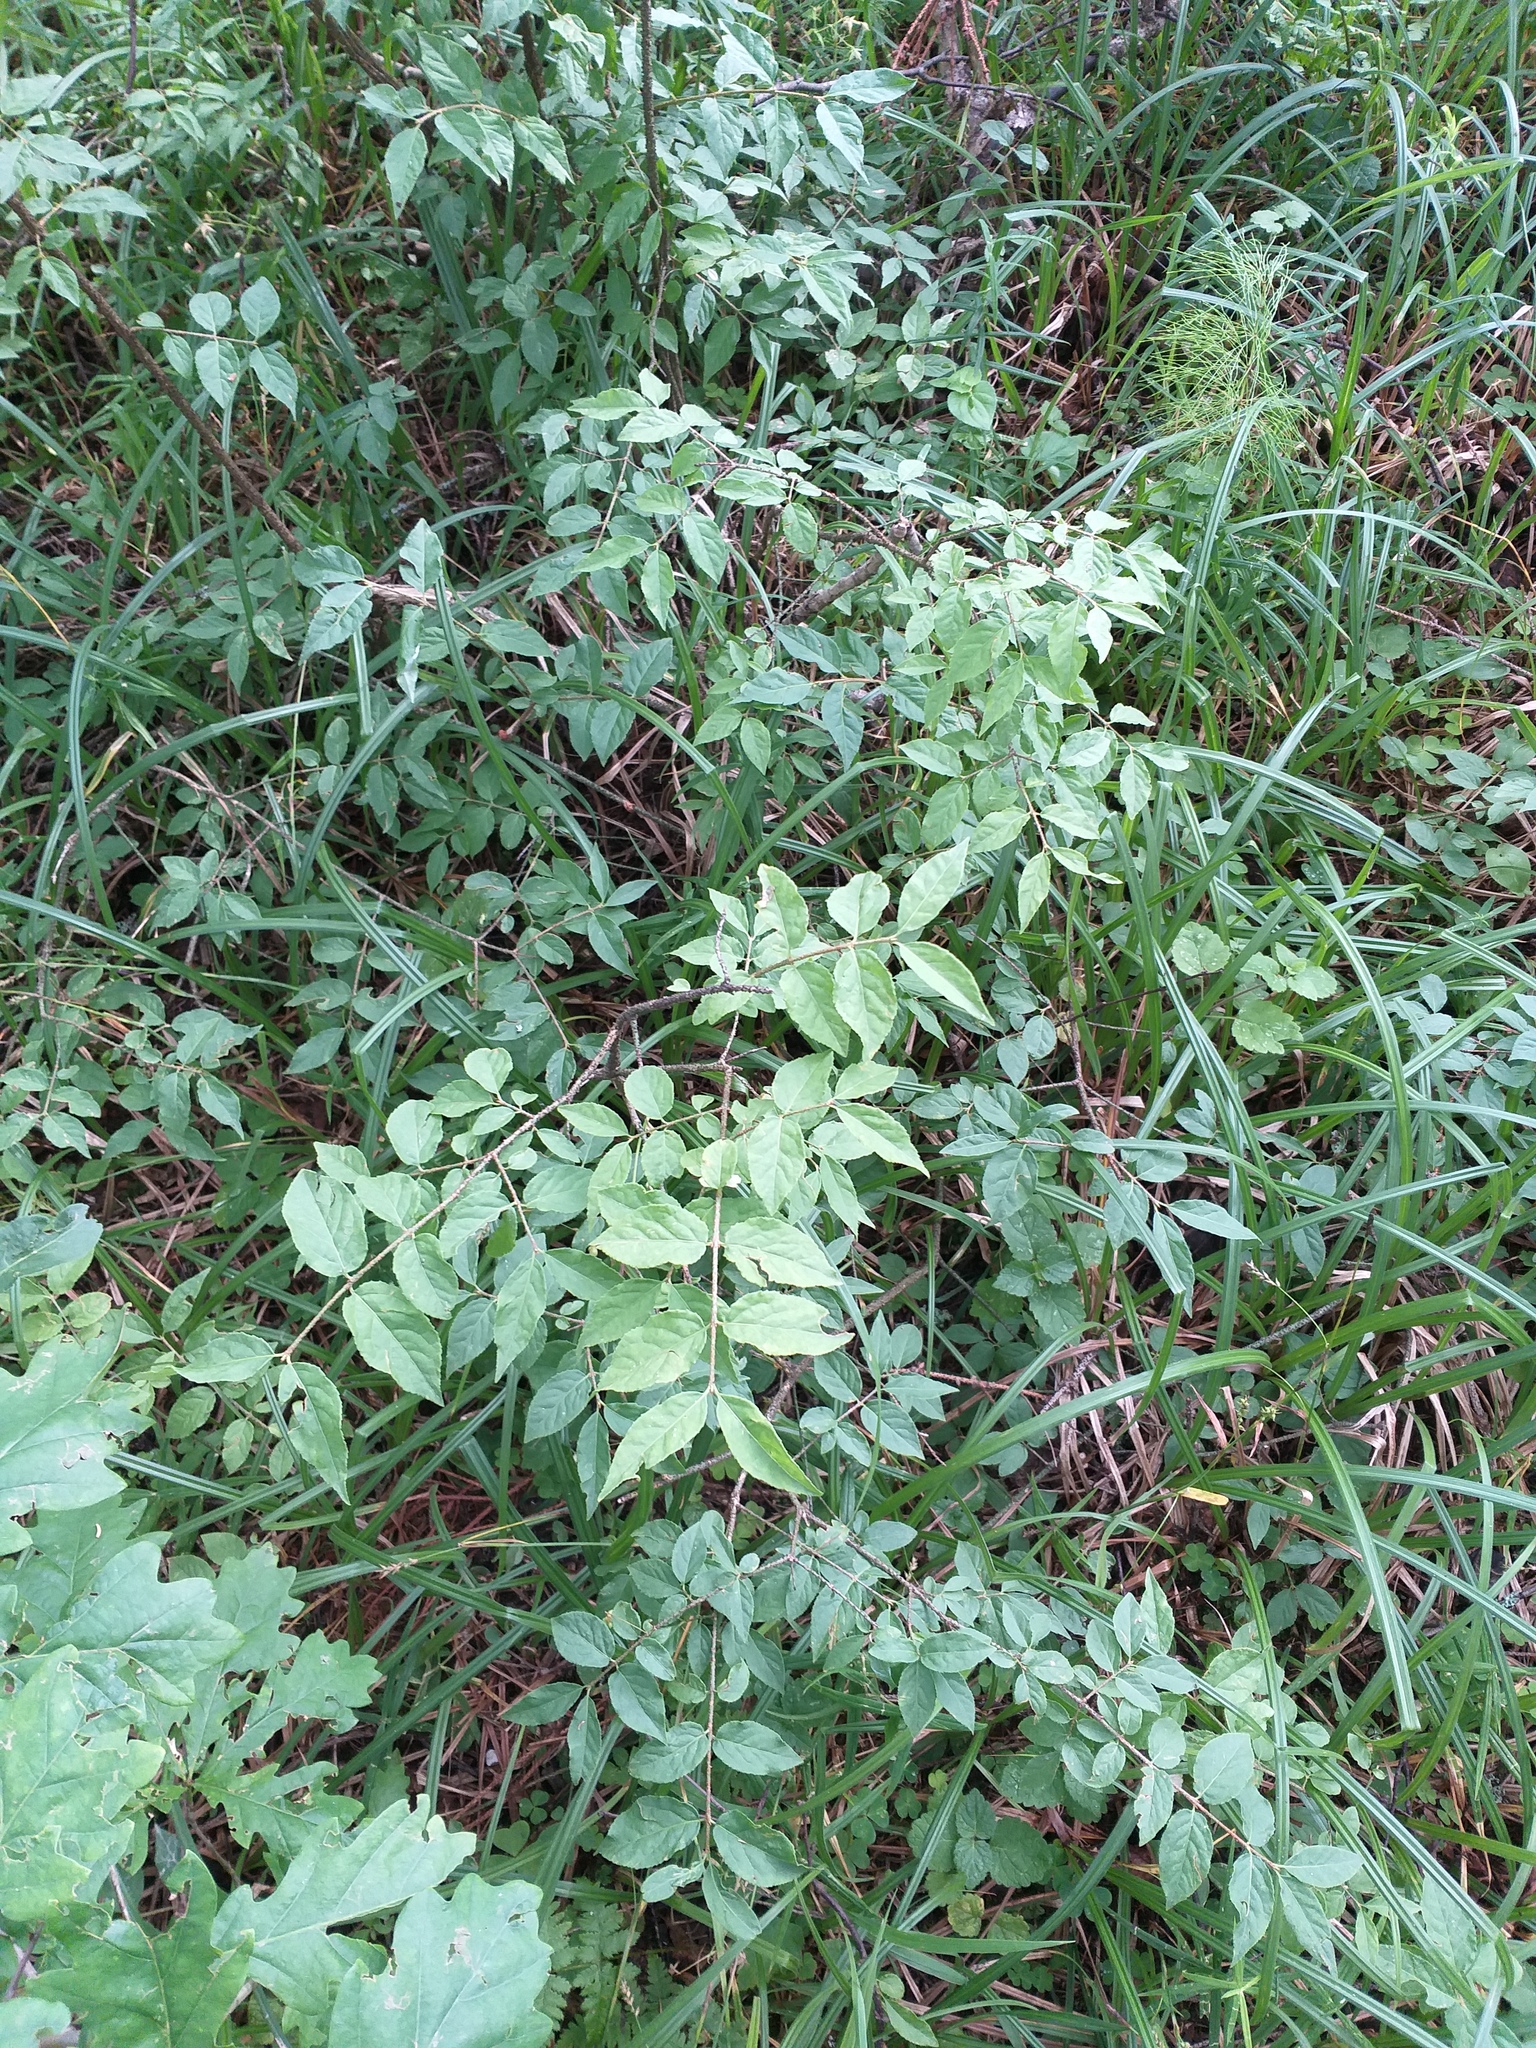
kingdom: Plantae
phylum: Tracheophyta
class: Magnoliopsida
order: Celastrales
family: Celastraceae
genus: Euonymus
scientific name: Euonymus verrucosus
